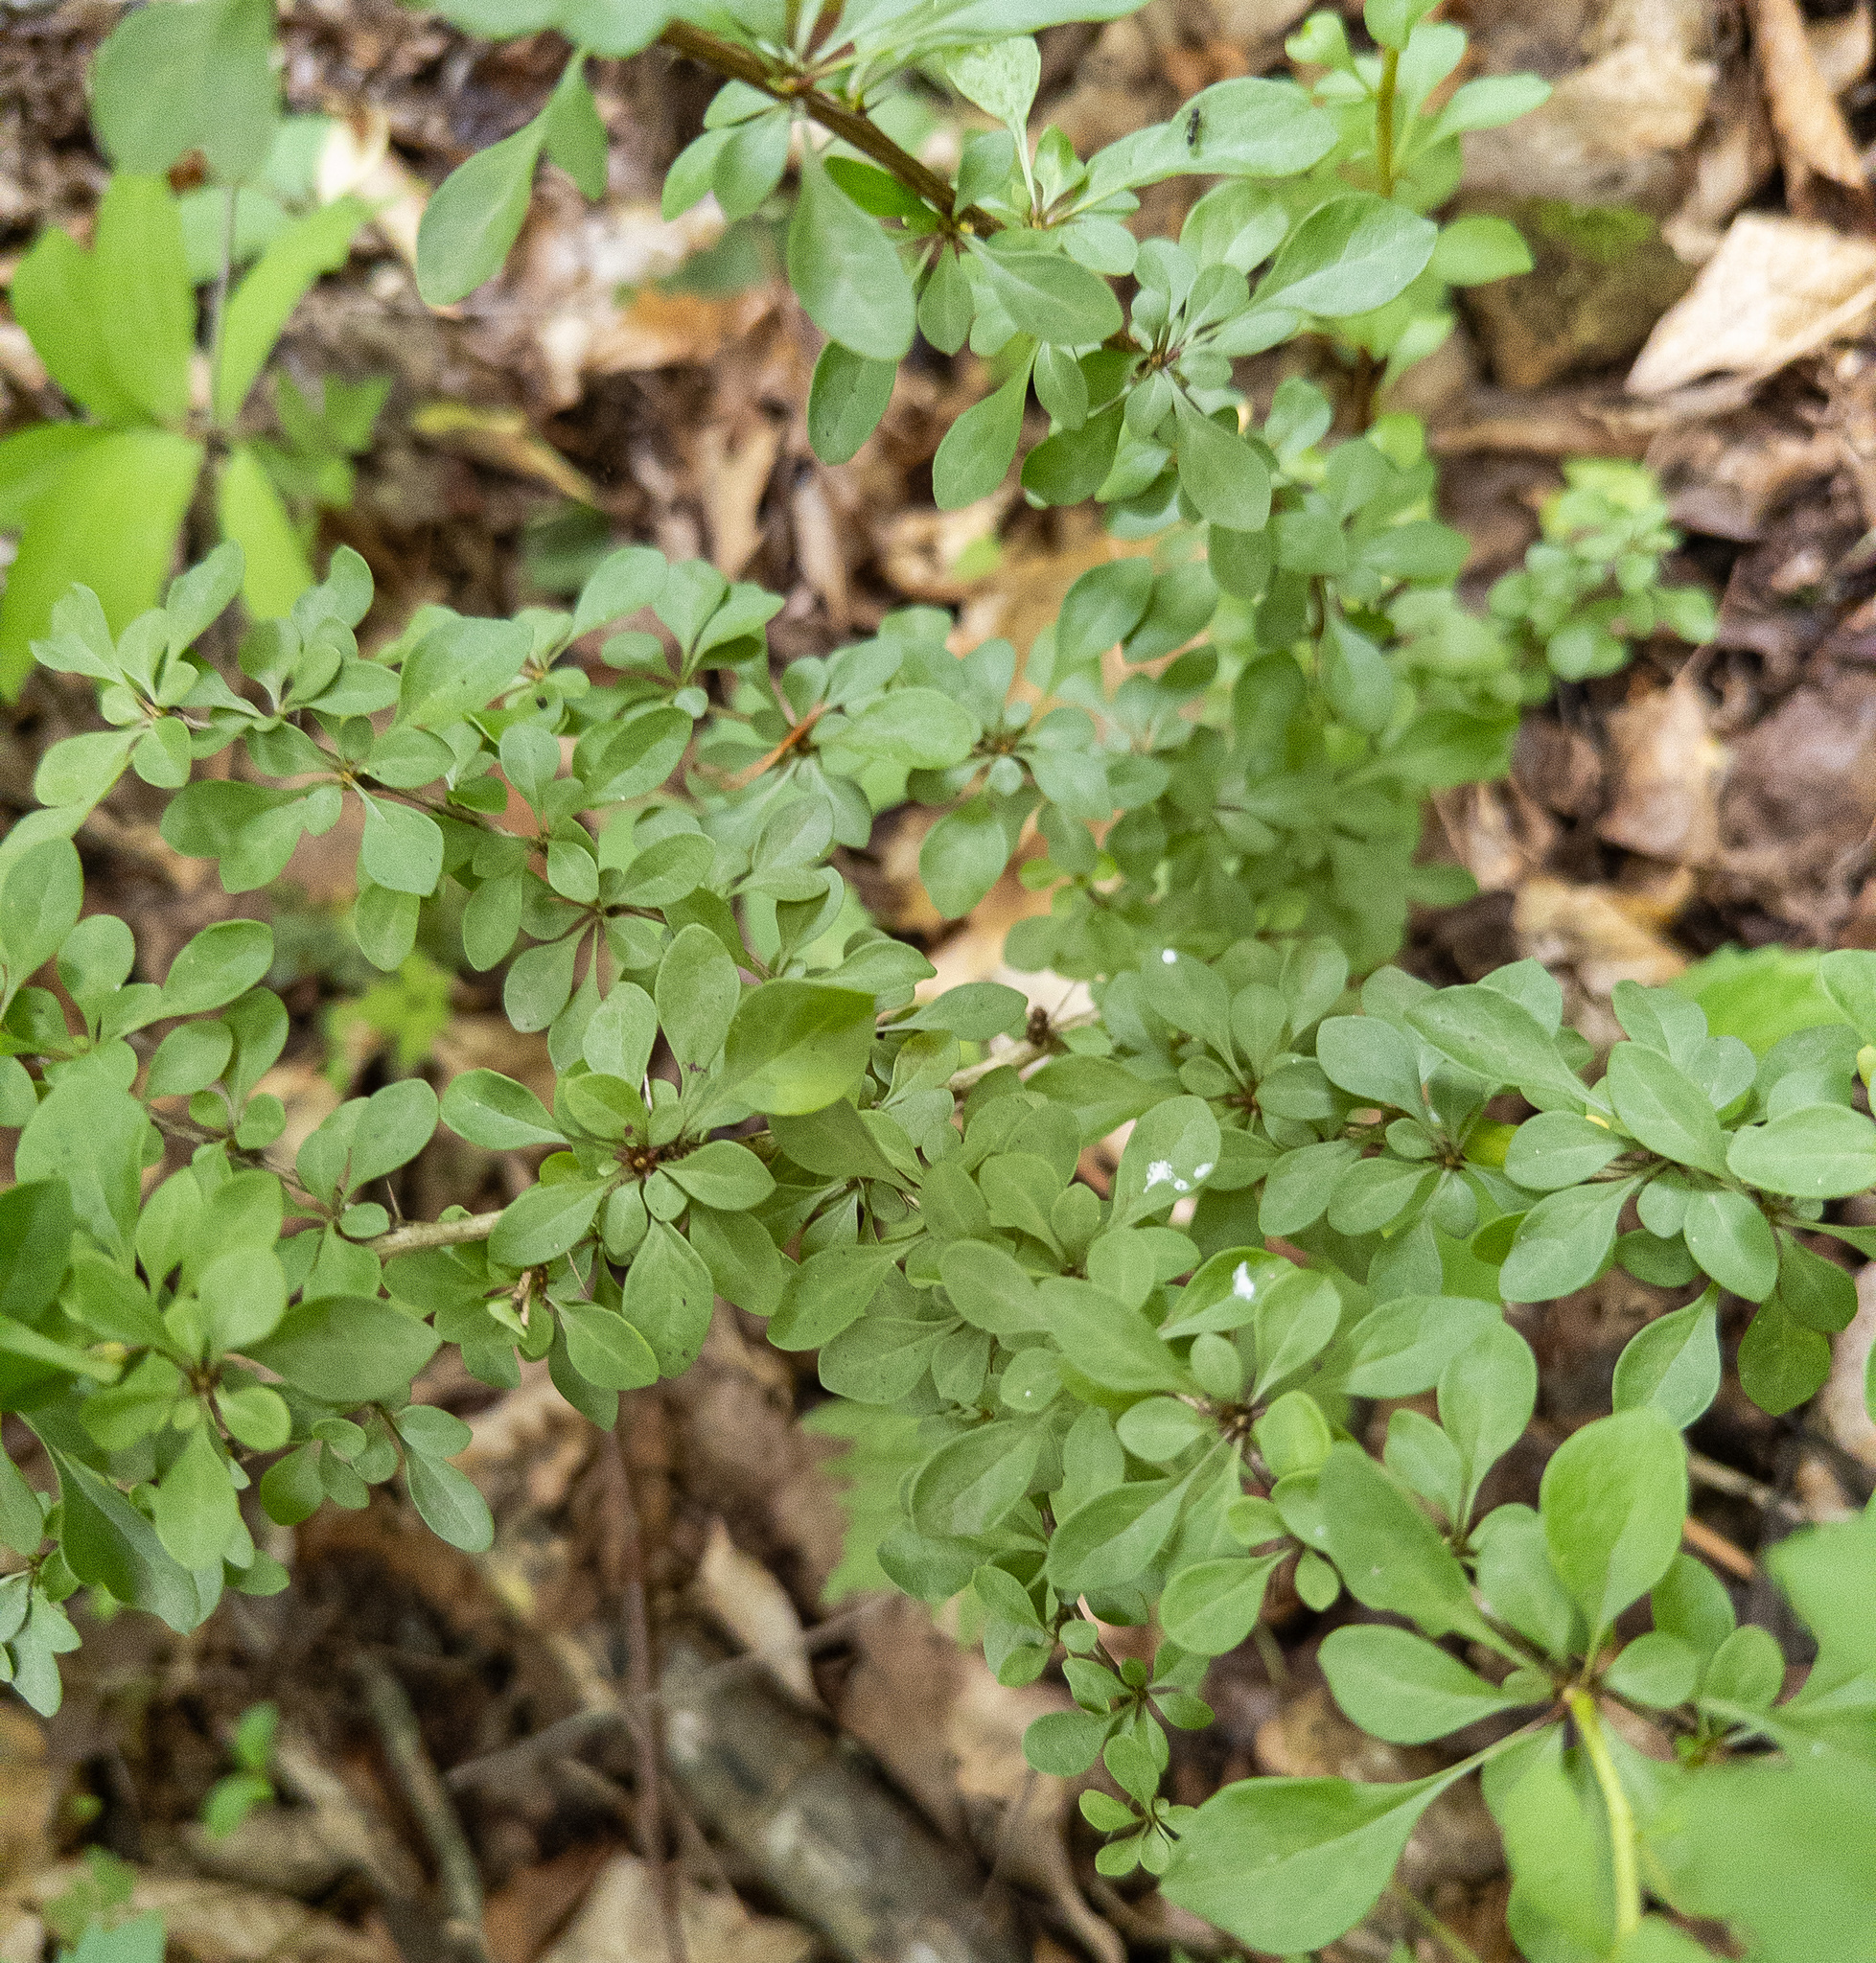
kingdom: Plantae
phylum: Tracheophyta
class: Magnoliopsida
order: Ranunculales
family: Berberidaceae
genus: Berberis
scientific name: Berberis thunbergii
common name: Japanese barberry
